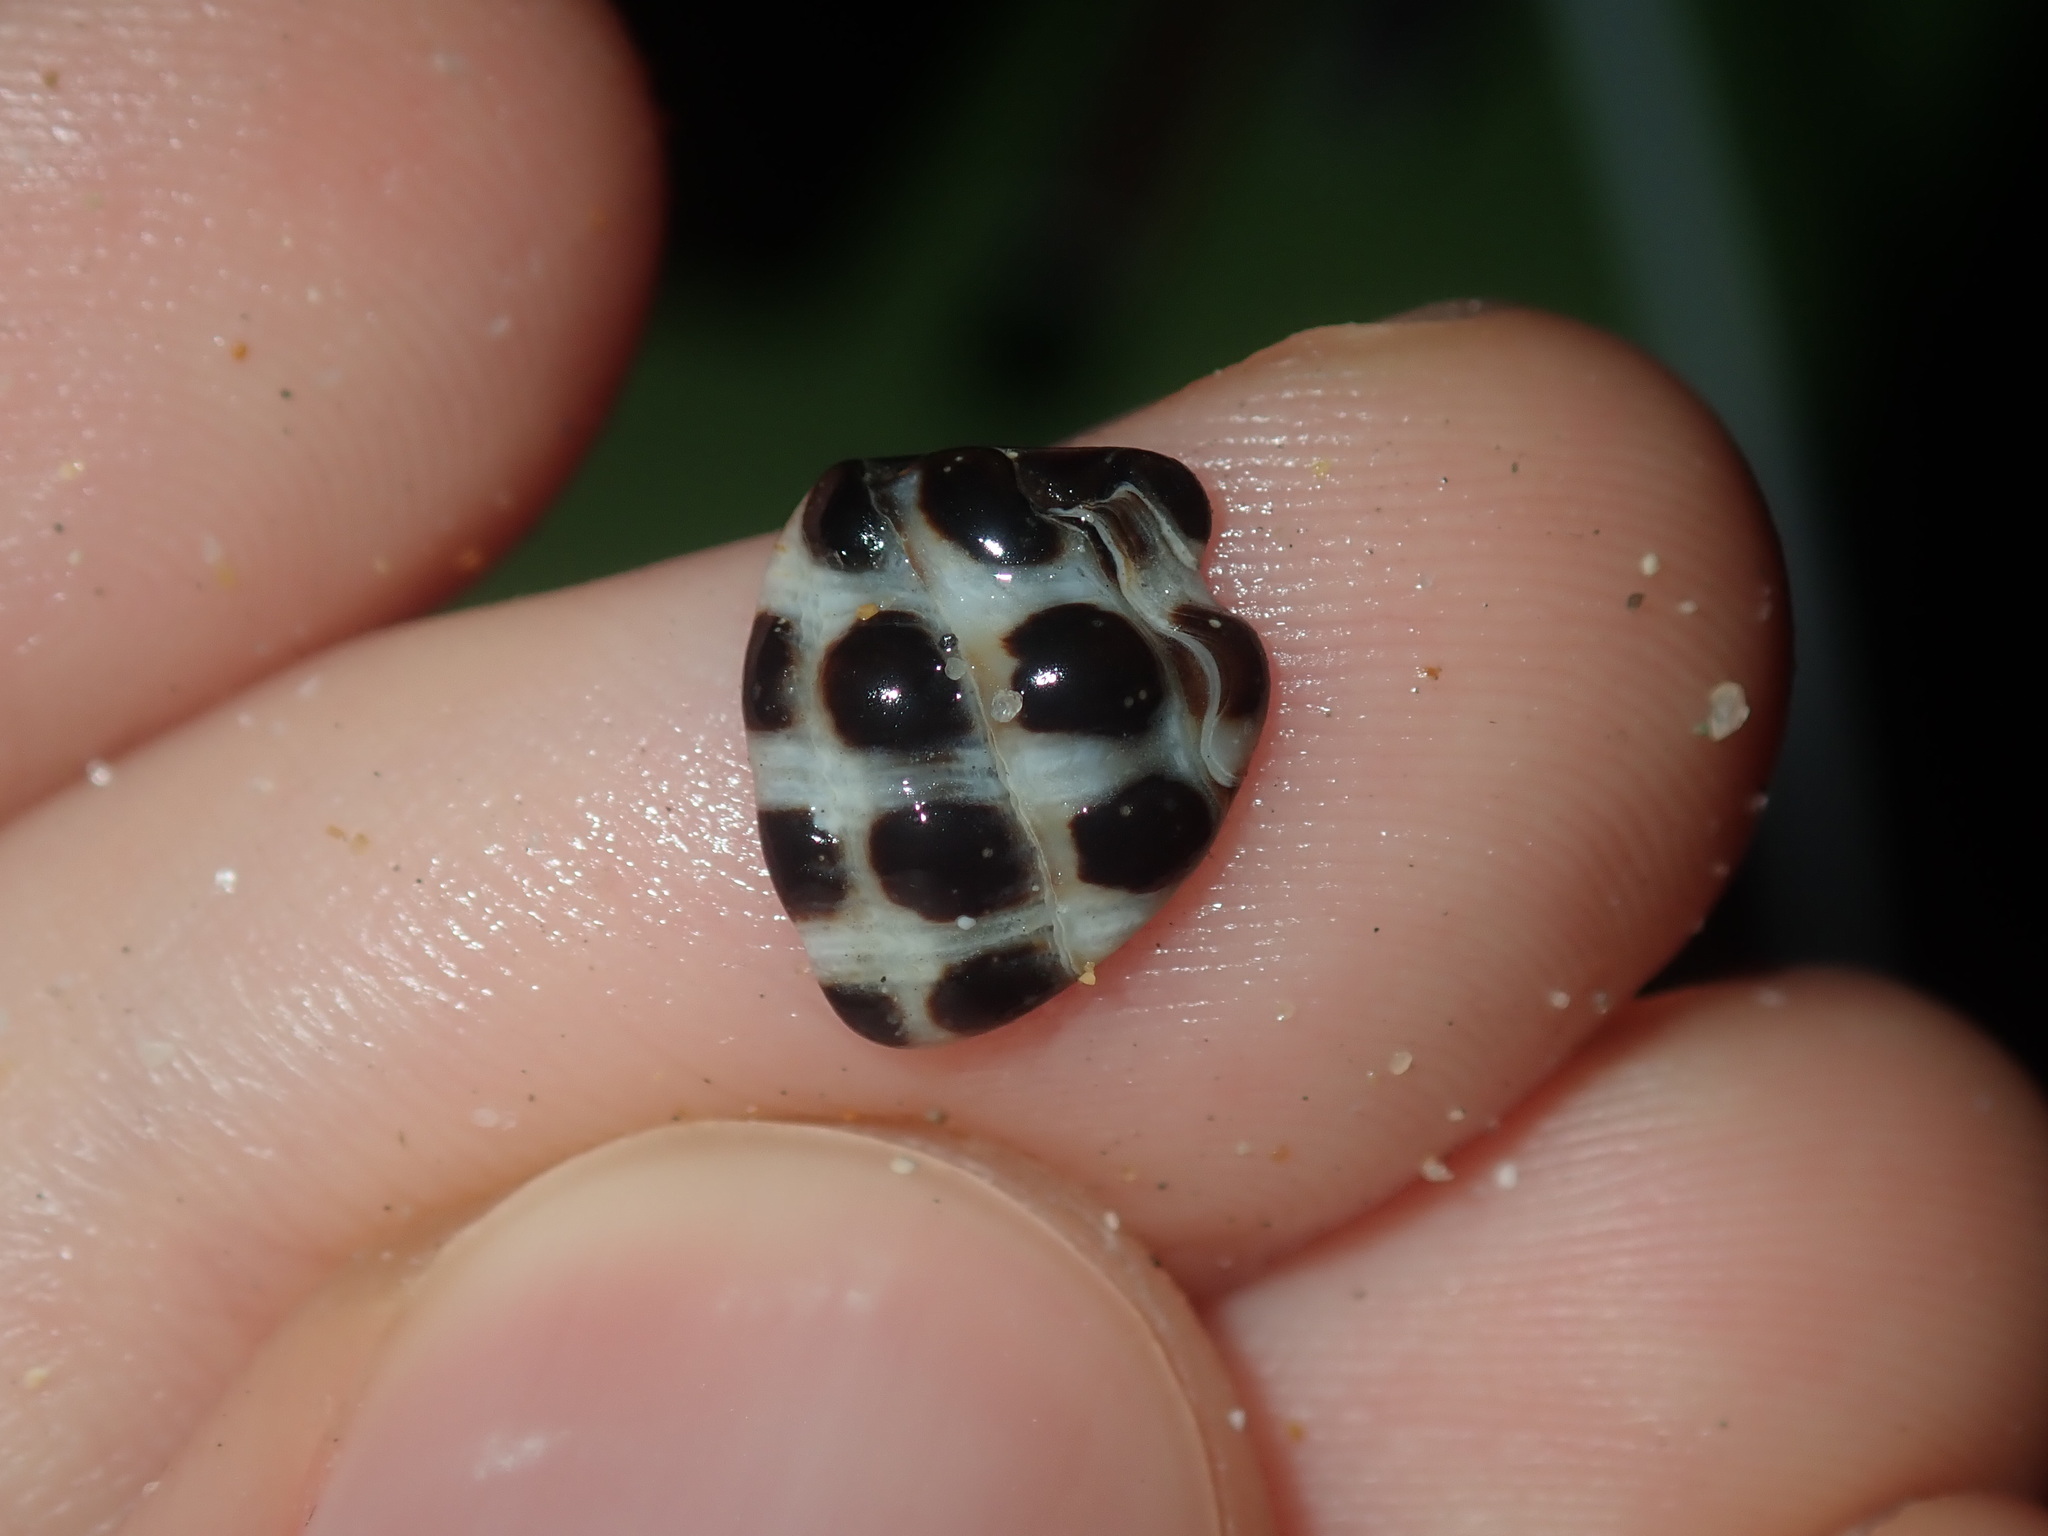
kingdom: Animalia
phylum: Mollusca
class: Gastropoda
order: Neogastropoda
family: Muricidae
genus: Tenguella
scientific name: Tenguella marginalba
